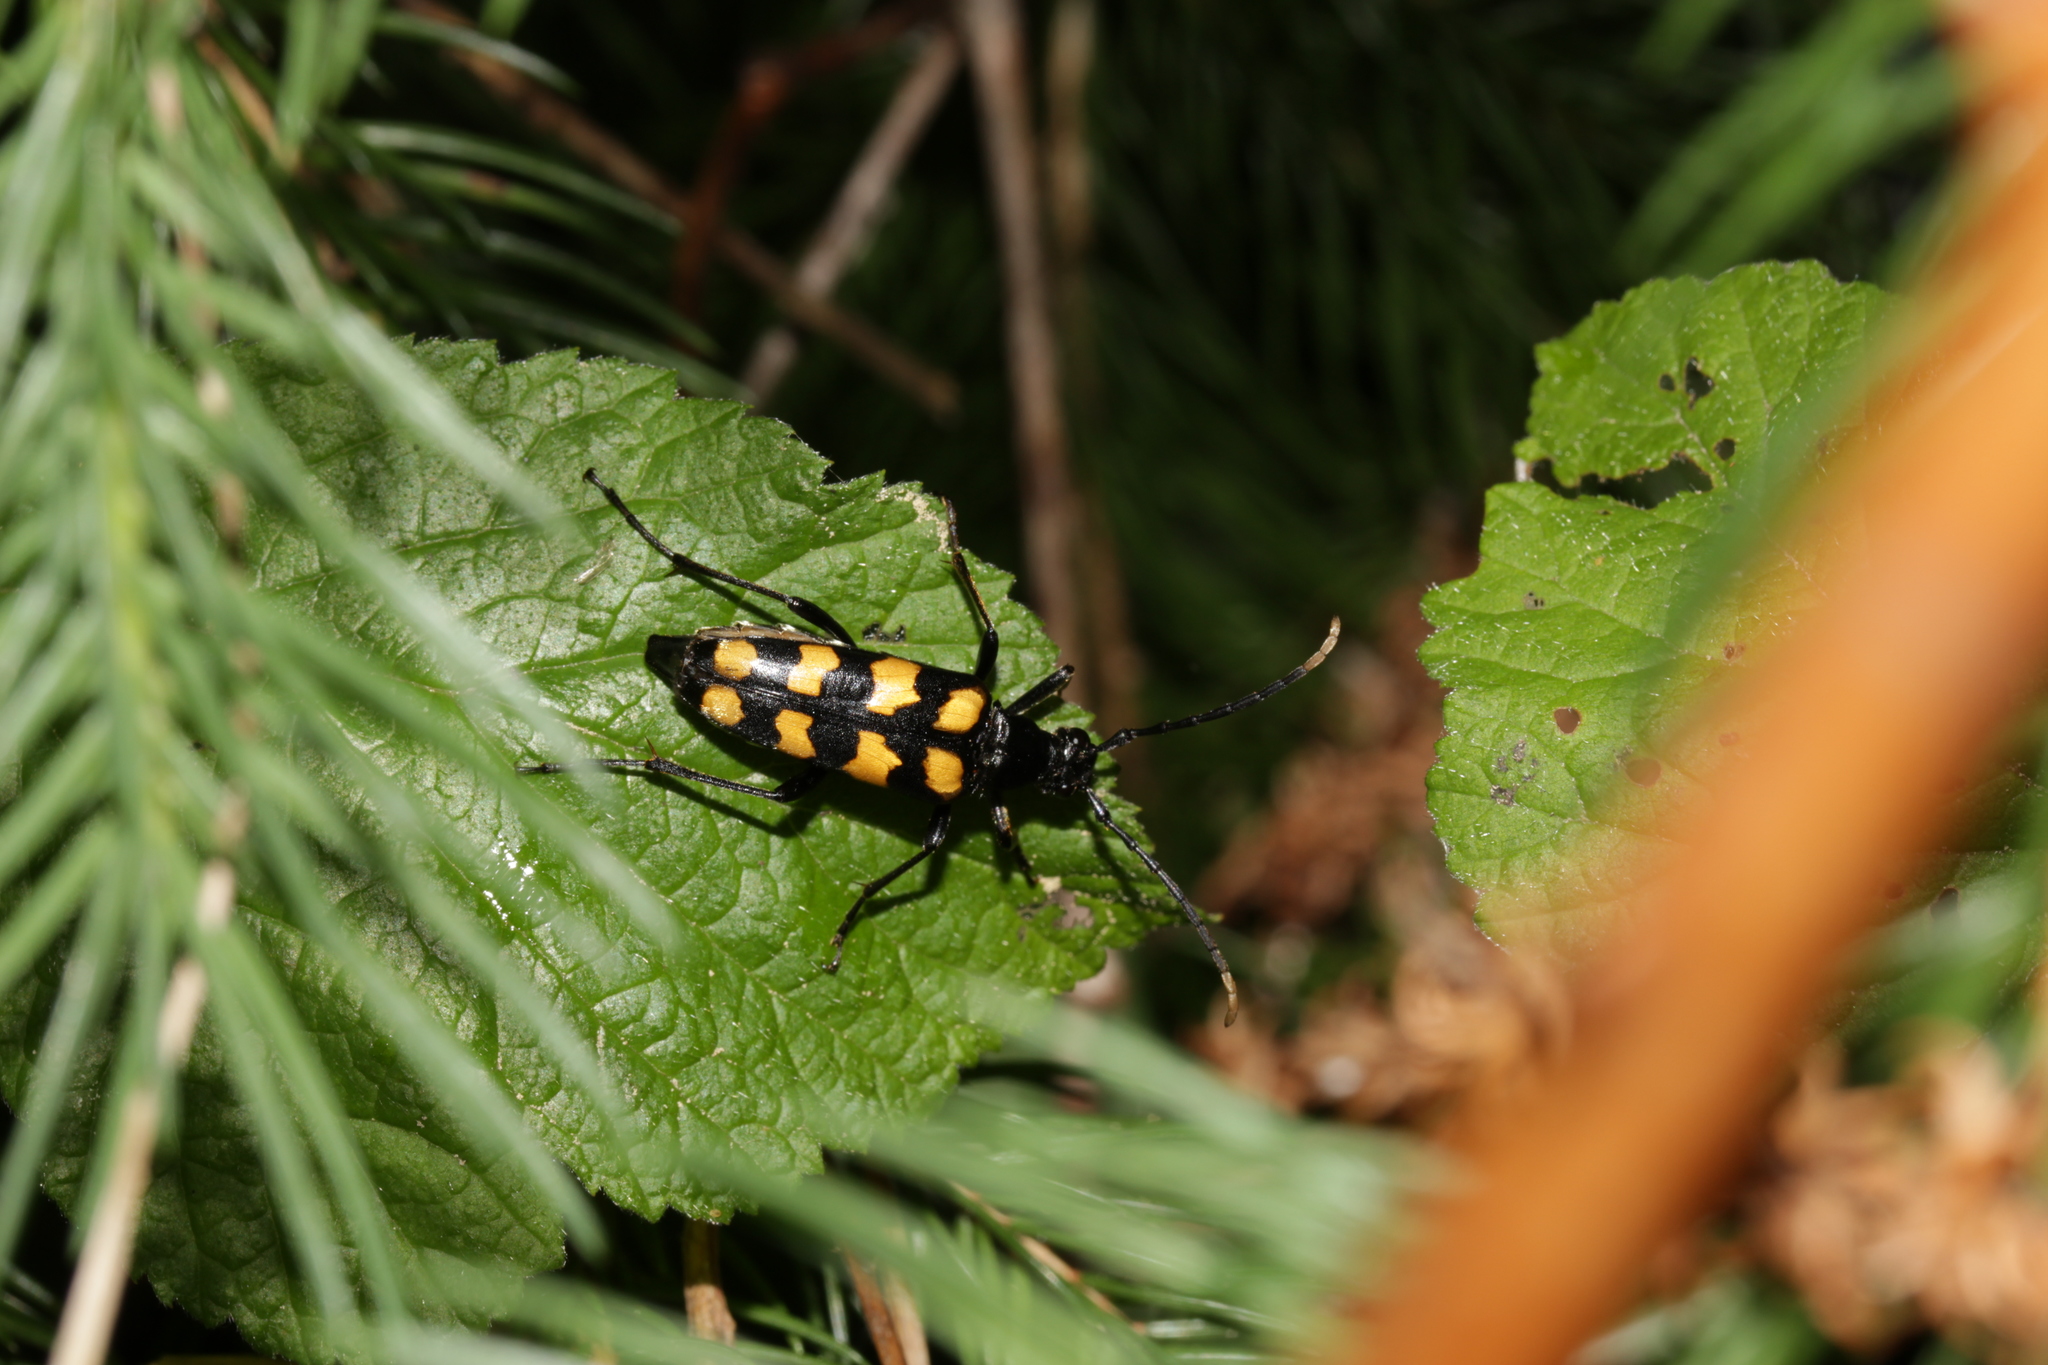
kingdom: Animalia
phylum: Arthropoda
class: Insecta
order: Coleoptera
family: Cerambycidae
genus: Leptura
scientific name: Leptura quadrifasciata
